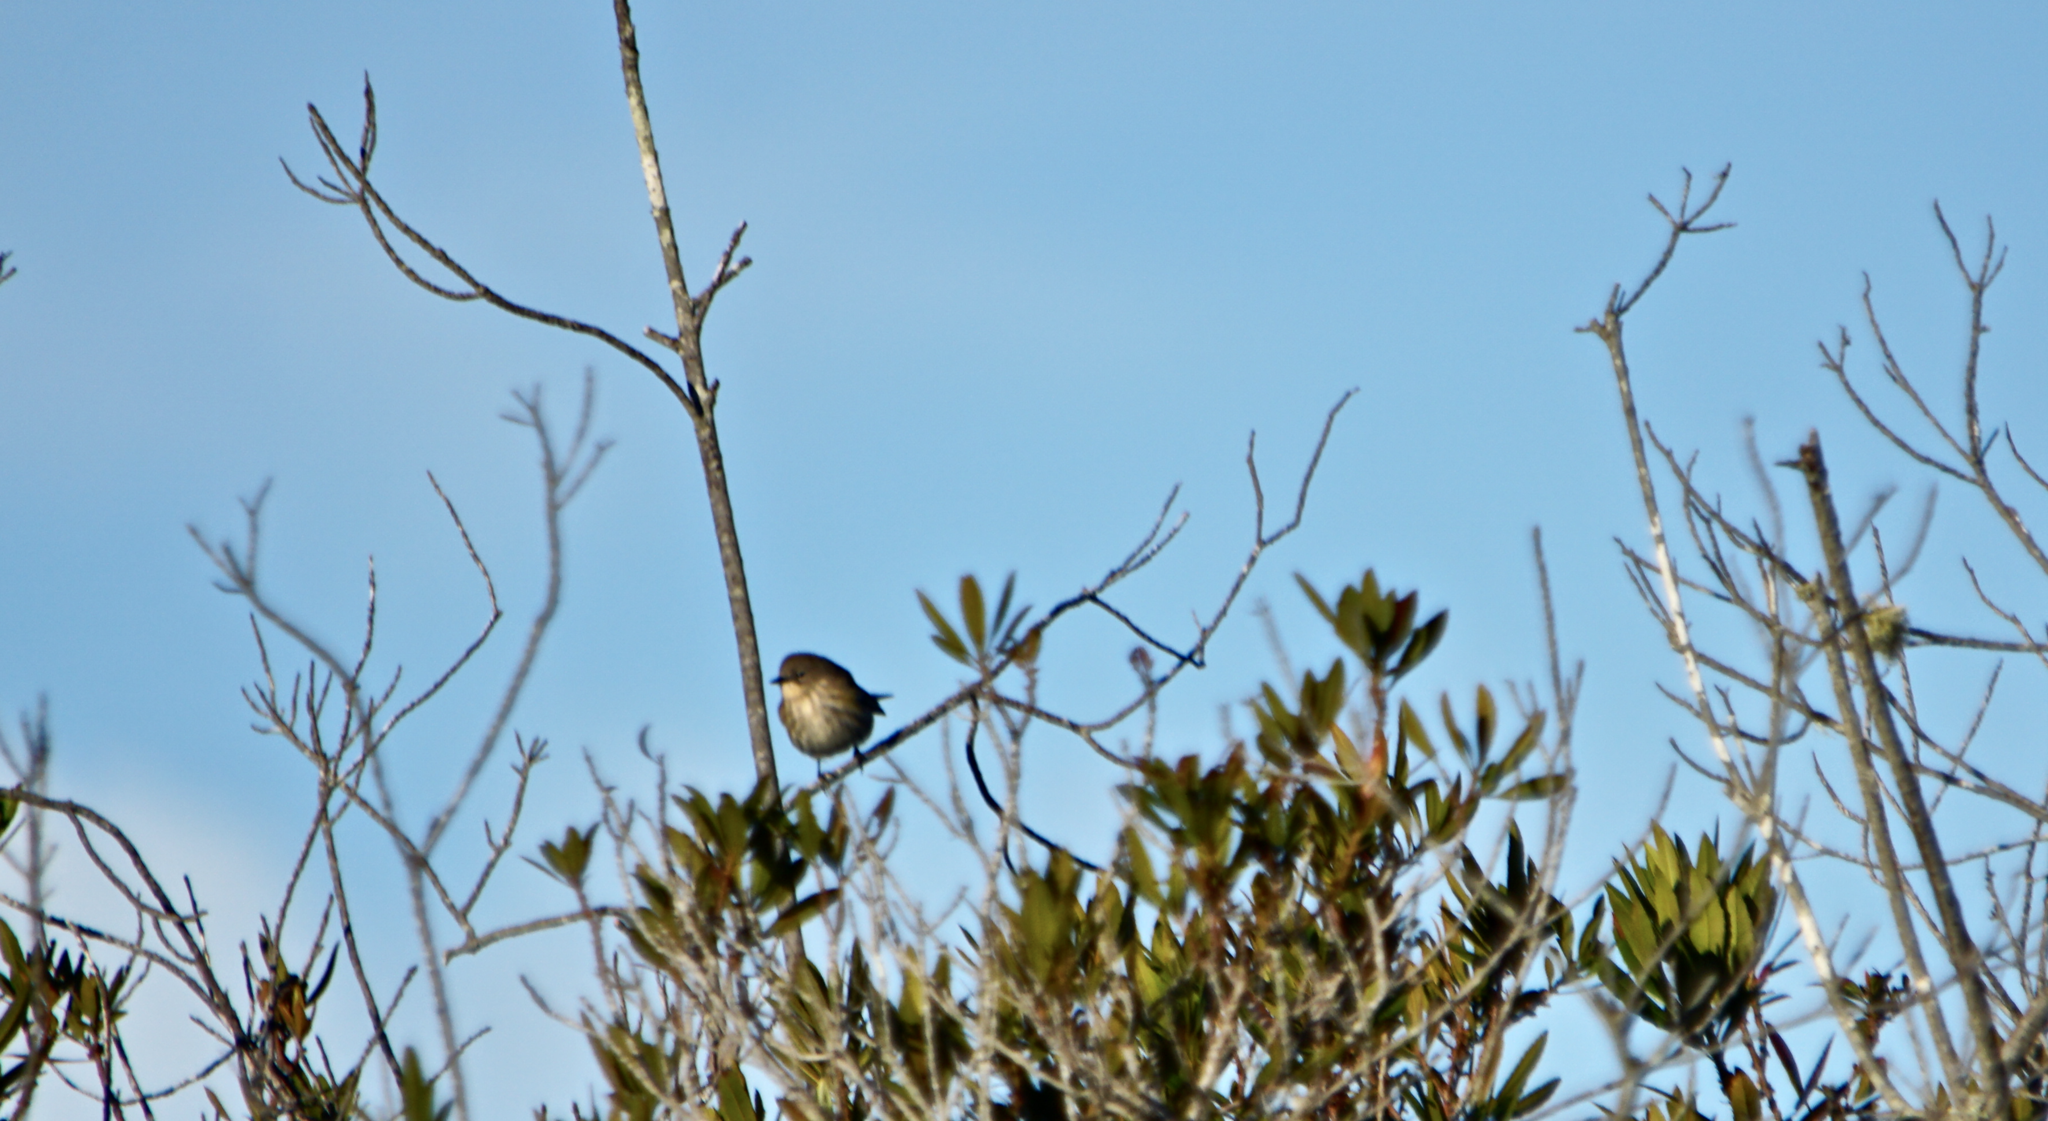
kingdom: Animalia
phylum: Chordata
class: Aves
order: Passeriformes
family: Parulidae
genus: Setophaga
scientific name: Setophaga coronata
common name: Myrtle warbler
